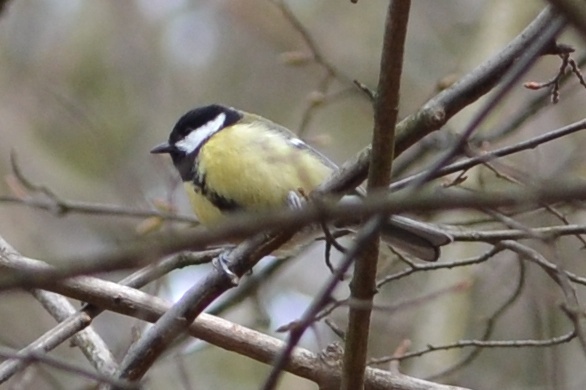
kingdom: Animalia
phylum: Chordata
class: Aves
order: Passeriformes
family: Paridae
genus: Parus
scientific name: Parus major
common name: Great tit
